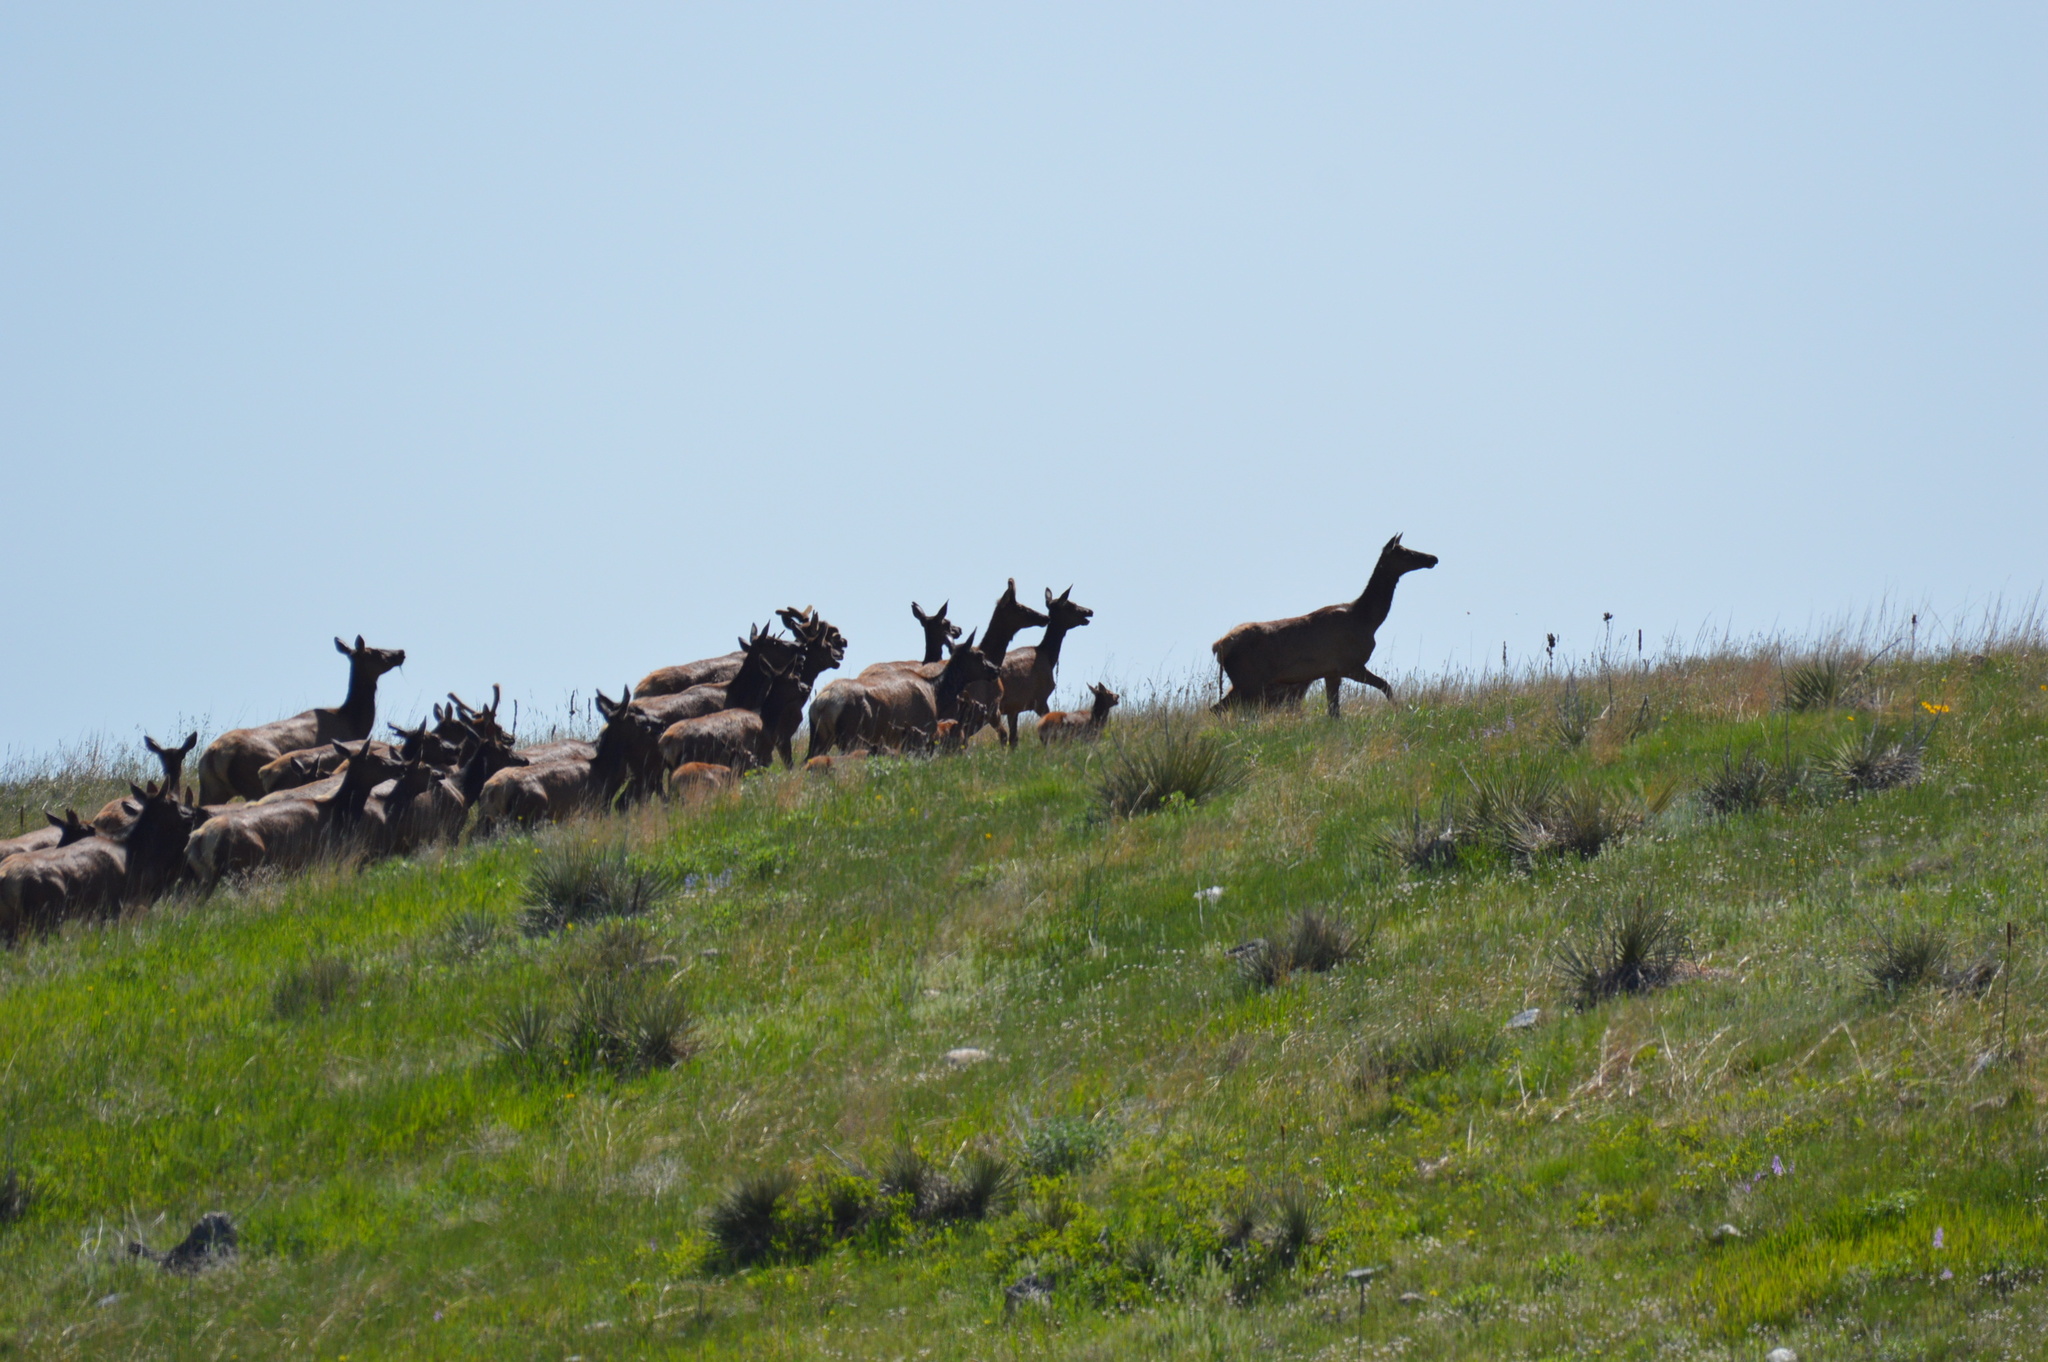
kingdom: Animalia
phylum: Chordata
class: Mammalia
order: Artiodactyla
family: Cervidae
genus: Cervus
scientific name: Cervus elaphus
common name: Red deer
